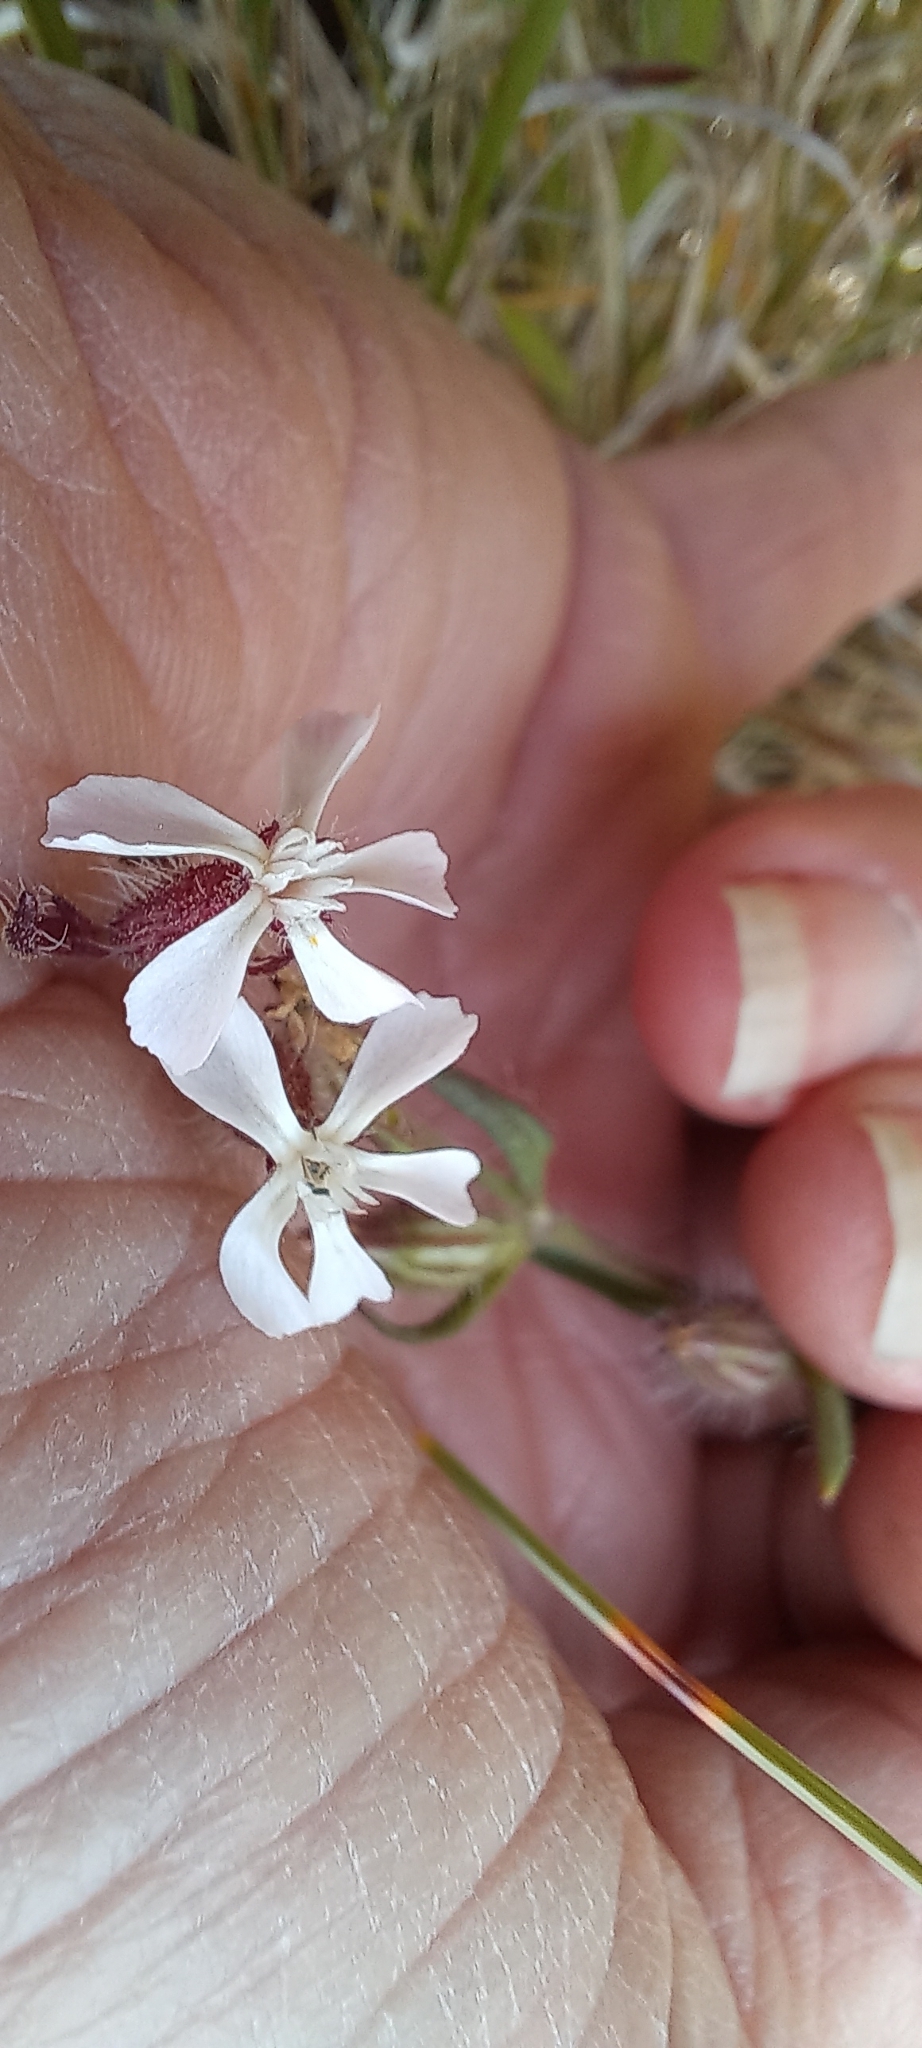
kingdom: Plantae
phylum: Tracheophyta
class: Magnoliopsida
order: Caryophyllales
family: Caryophyllaceae
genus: Silene
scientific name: Silene gallica
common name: Small-flowered catchfly
